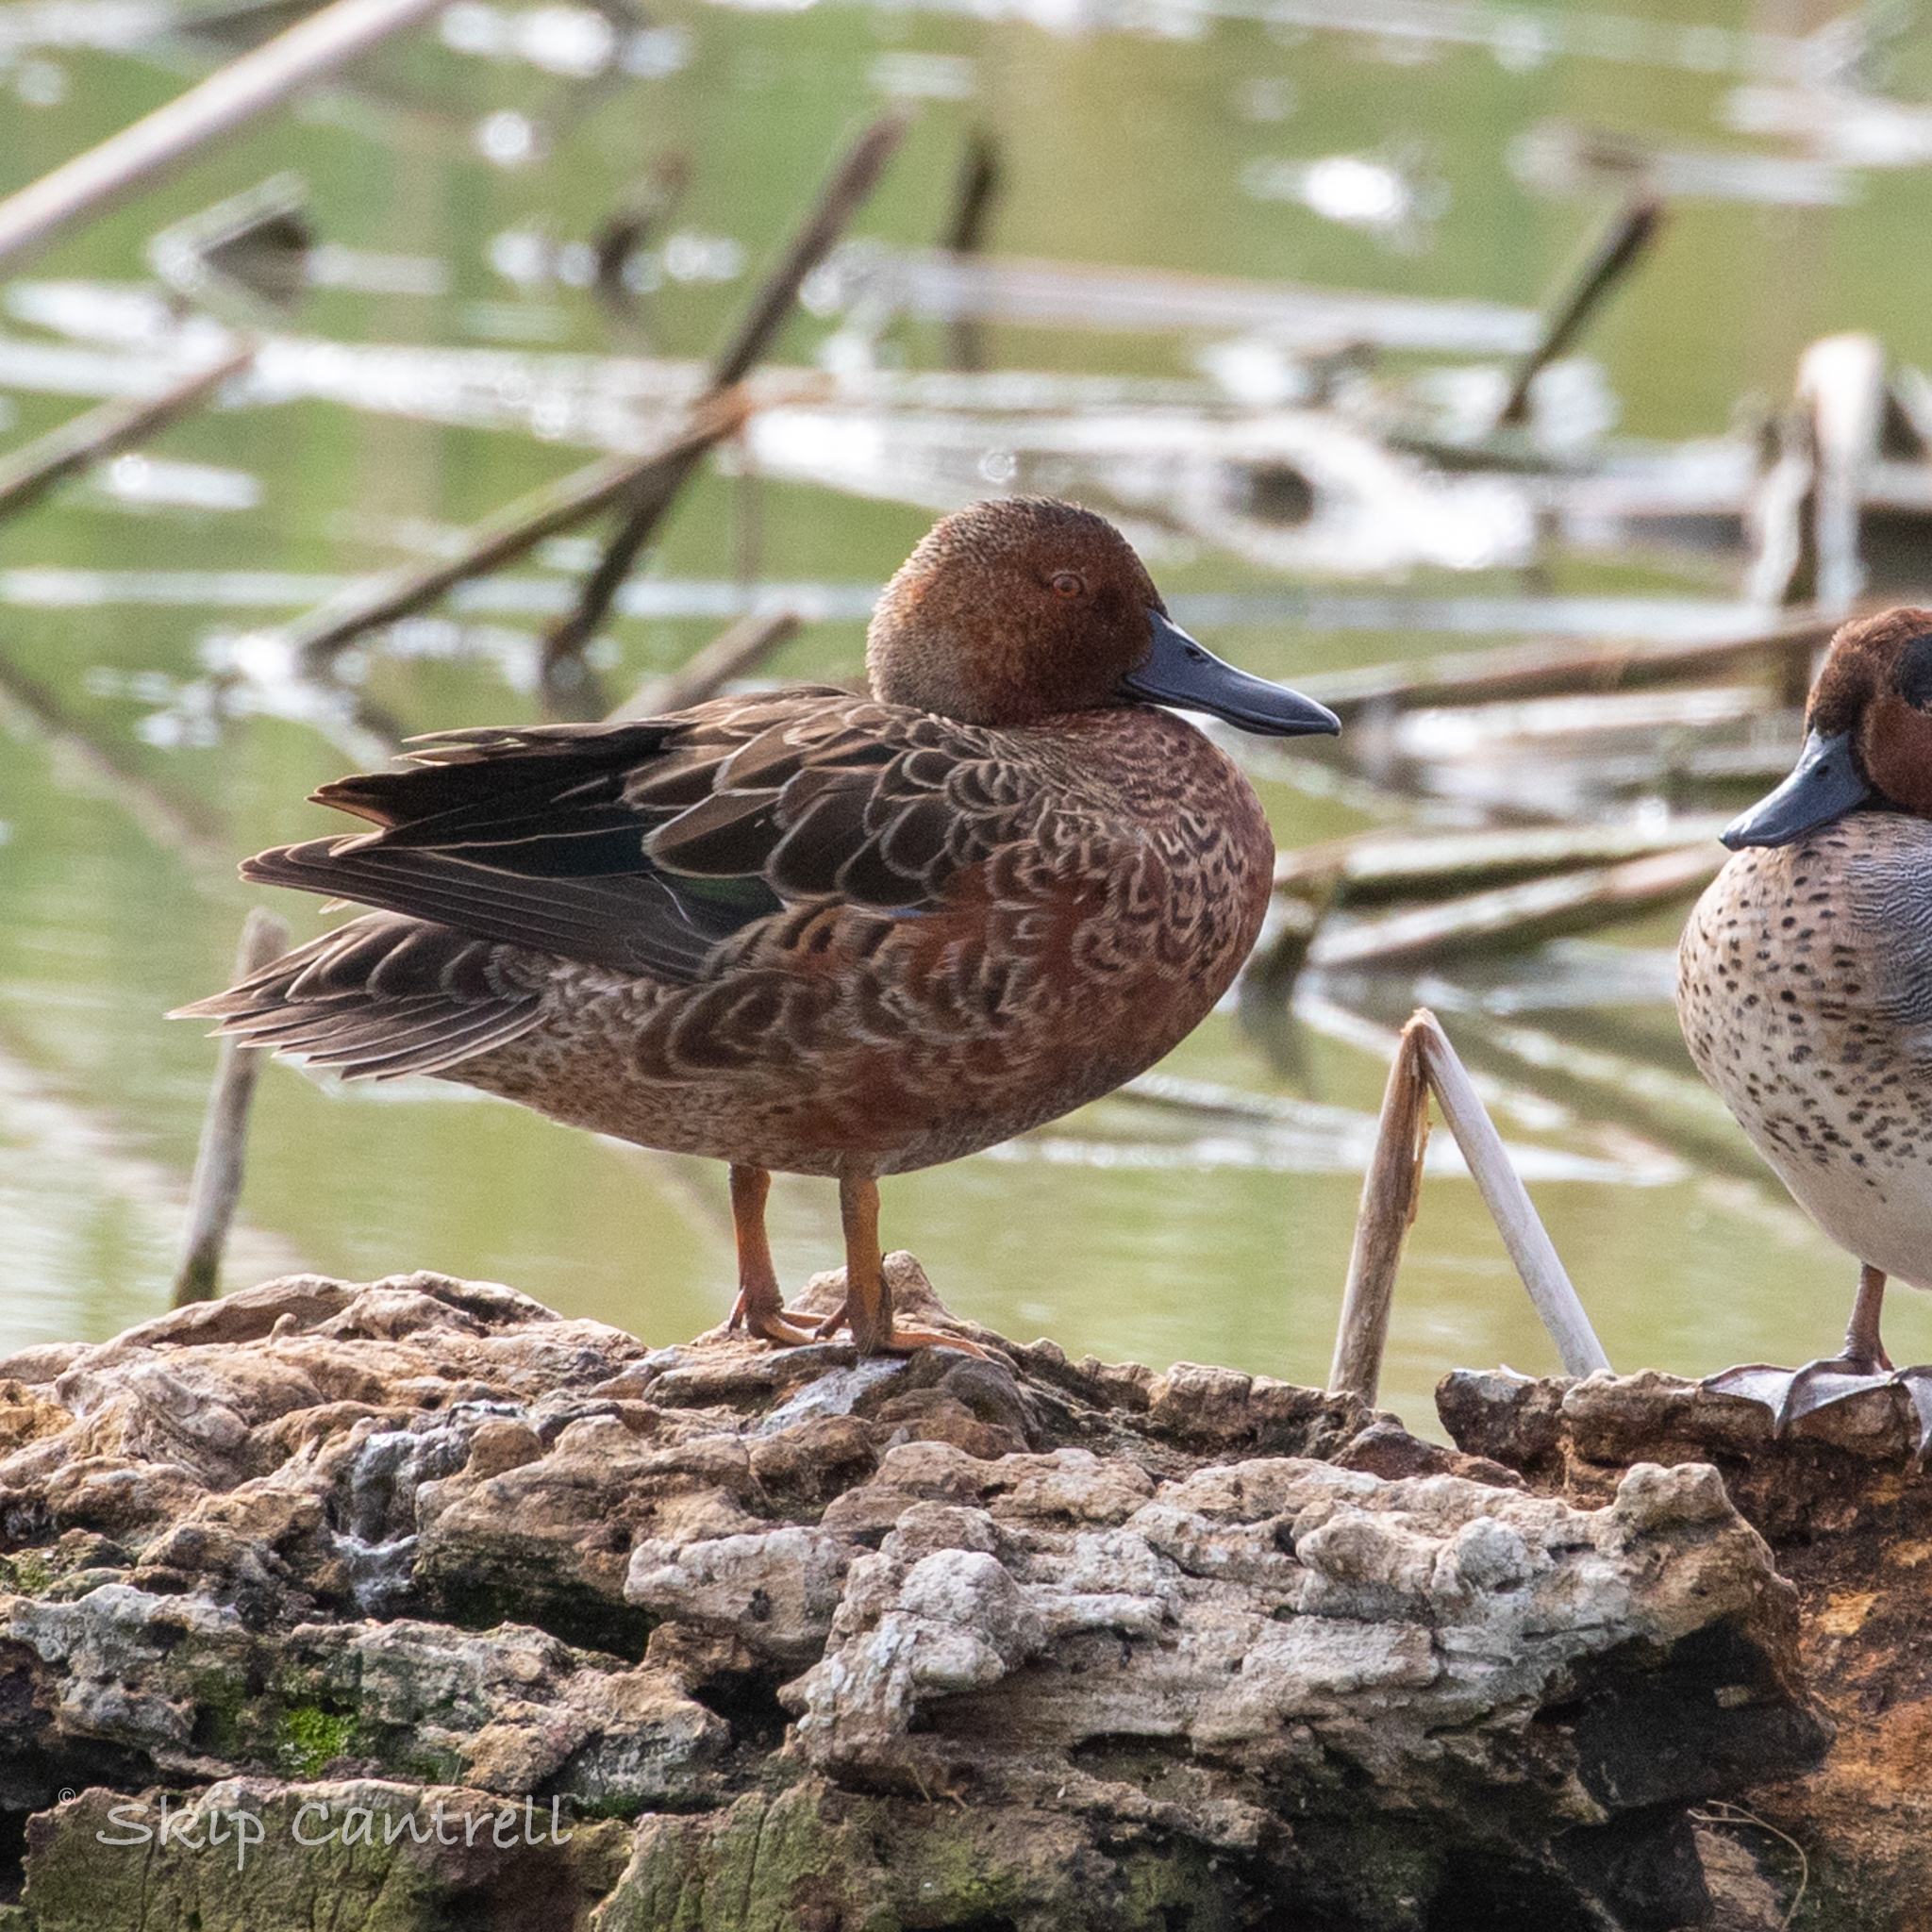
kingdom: Animalia
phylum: Chordata
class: Aves
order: Anseriformes
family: Anatidae
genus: Spatula
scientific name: Spatula cyanoptera
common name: Cinnamon teal
